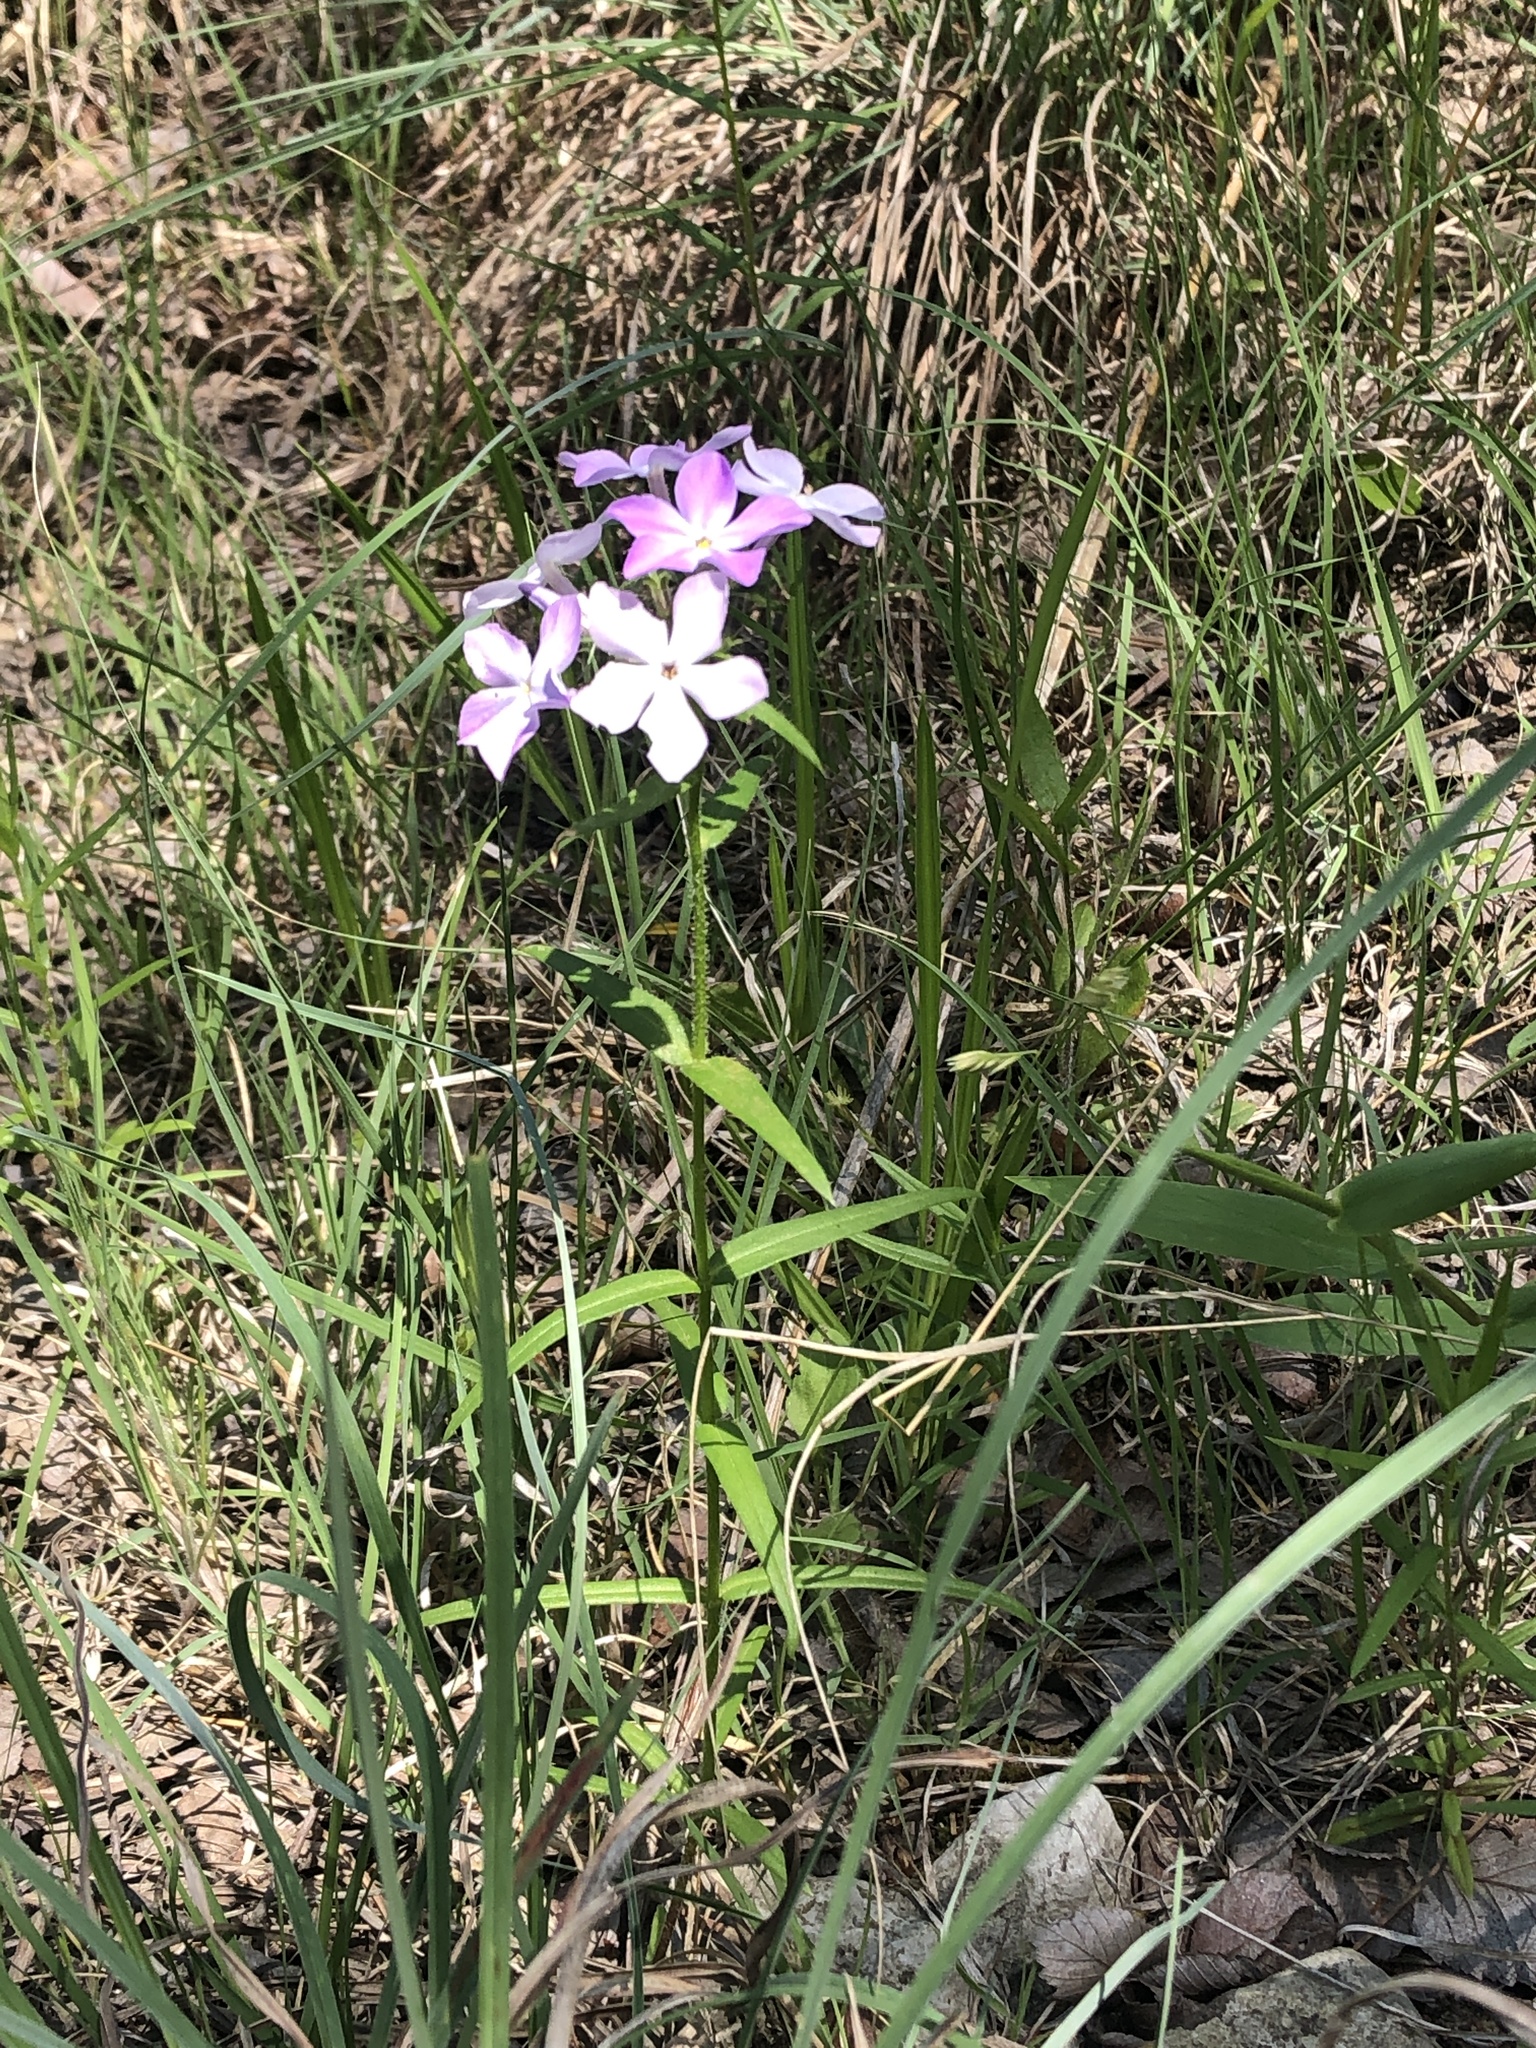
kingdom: Plantae
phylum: Tracheophyta
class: Magnoliopsida
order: Ericales
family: Polemoniaceae
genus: Phlox
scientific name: Phlox pilosa
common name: Prairie phlox
